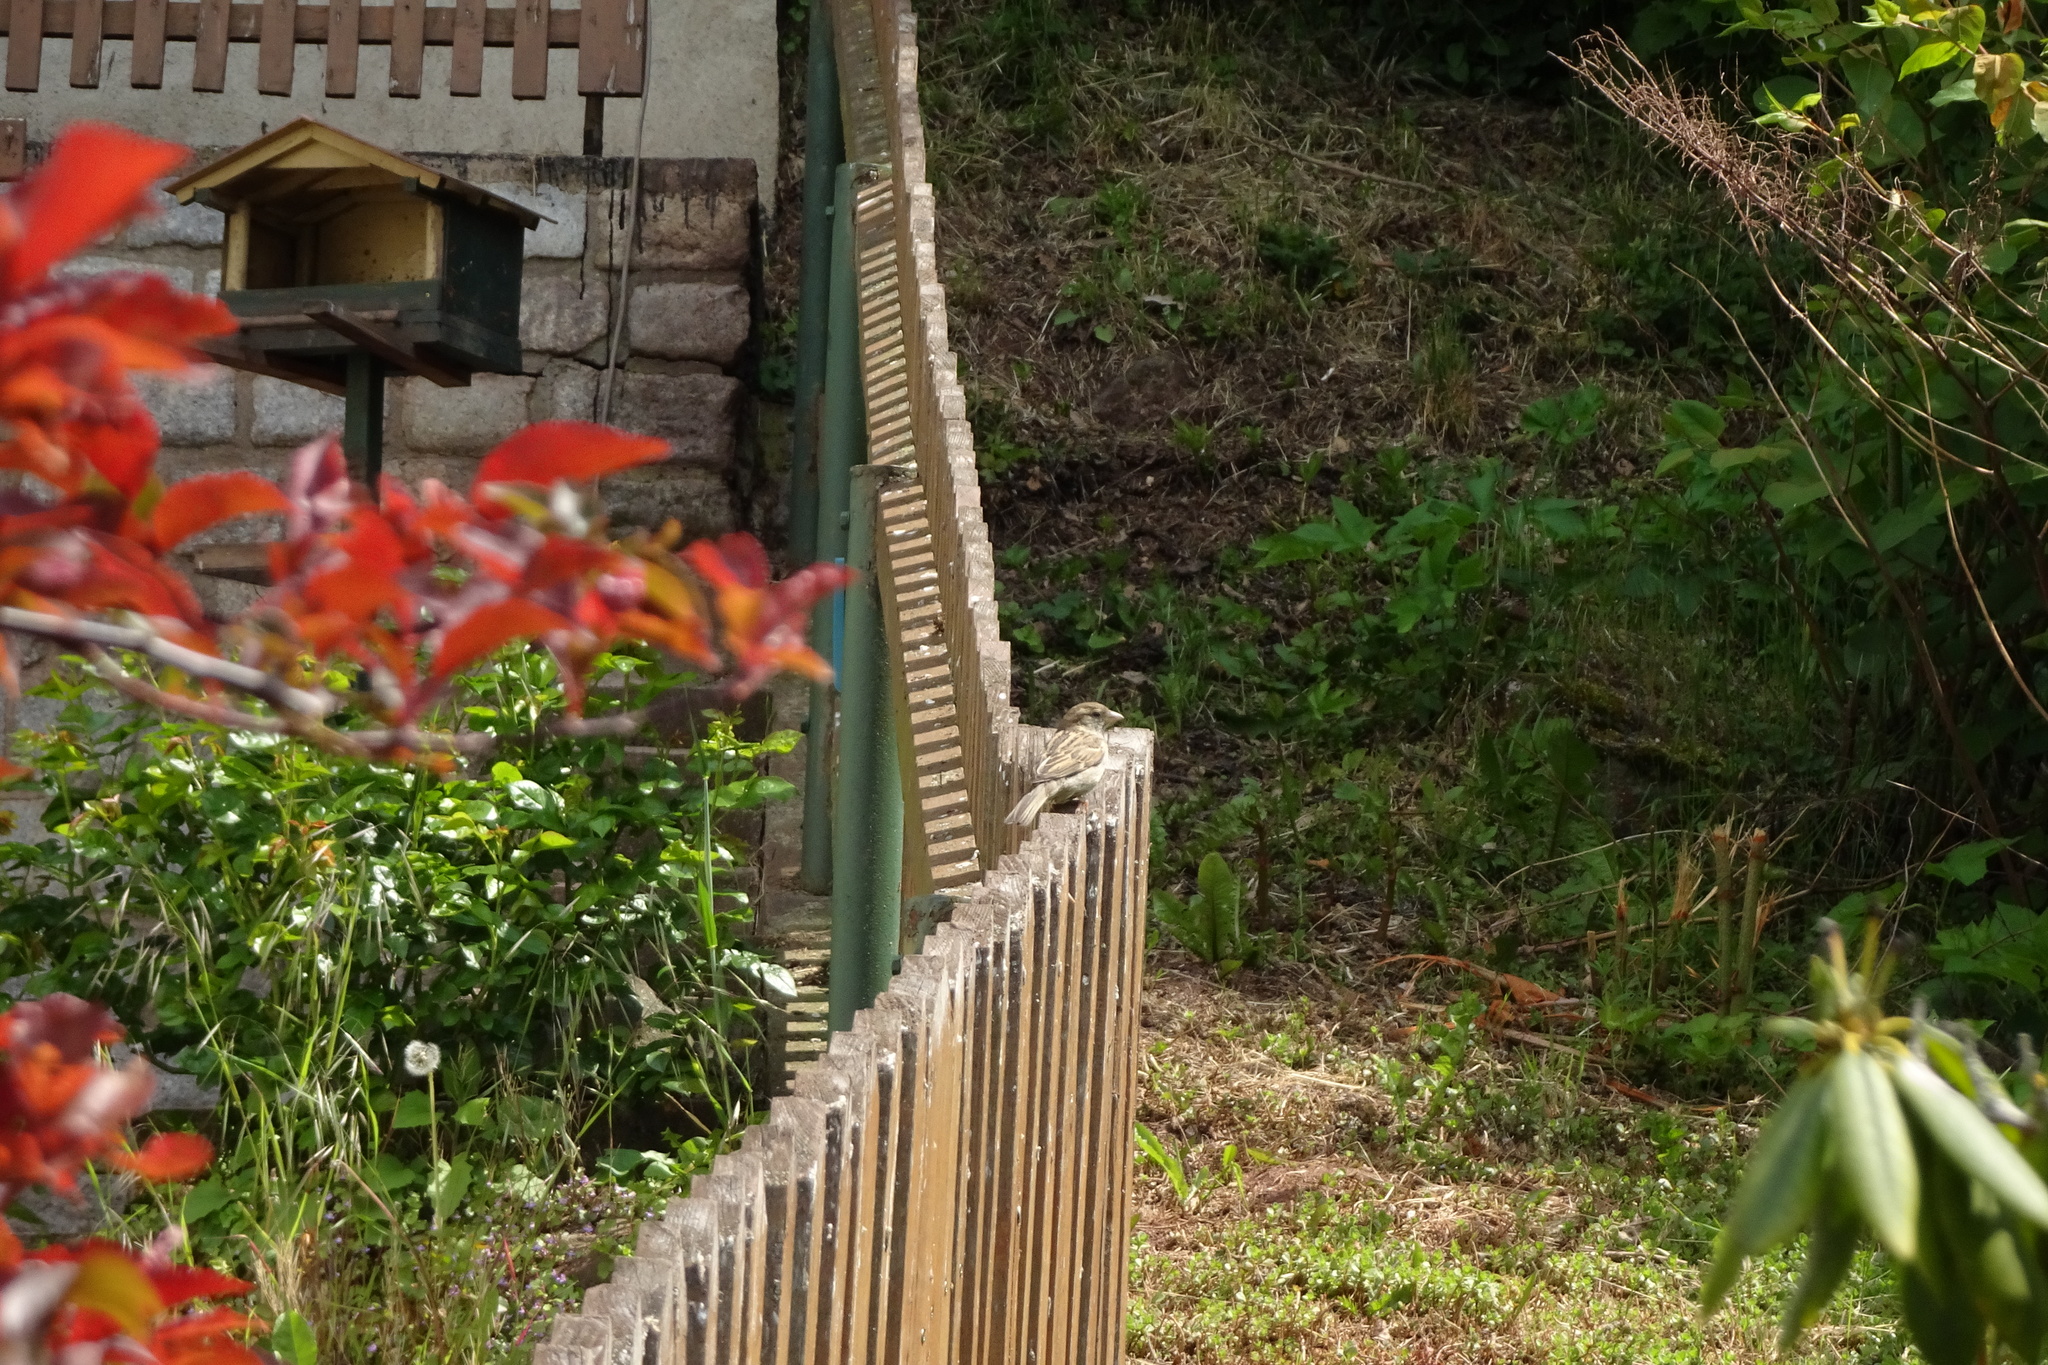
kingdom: Animalia
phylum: Chordata
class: Aves
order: Passeriformes
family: Passeridae
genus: Passer
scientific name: Passer domesticus
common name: House sparrow
